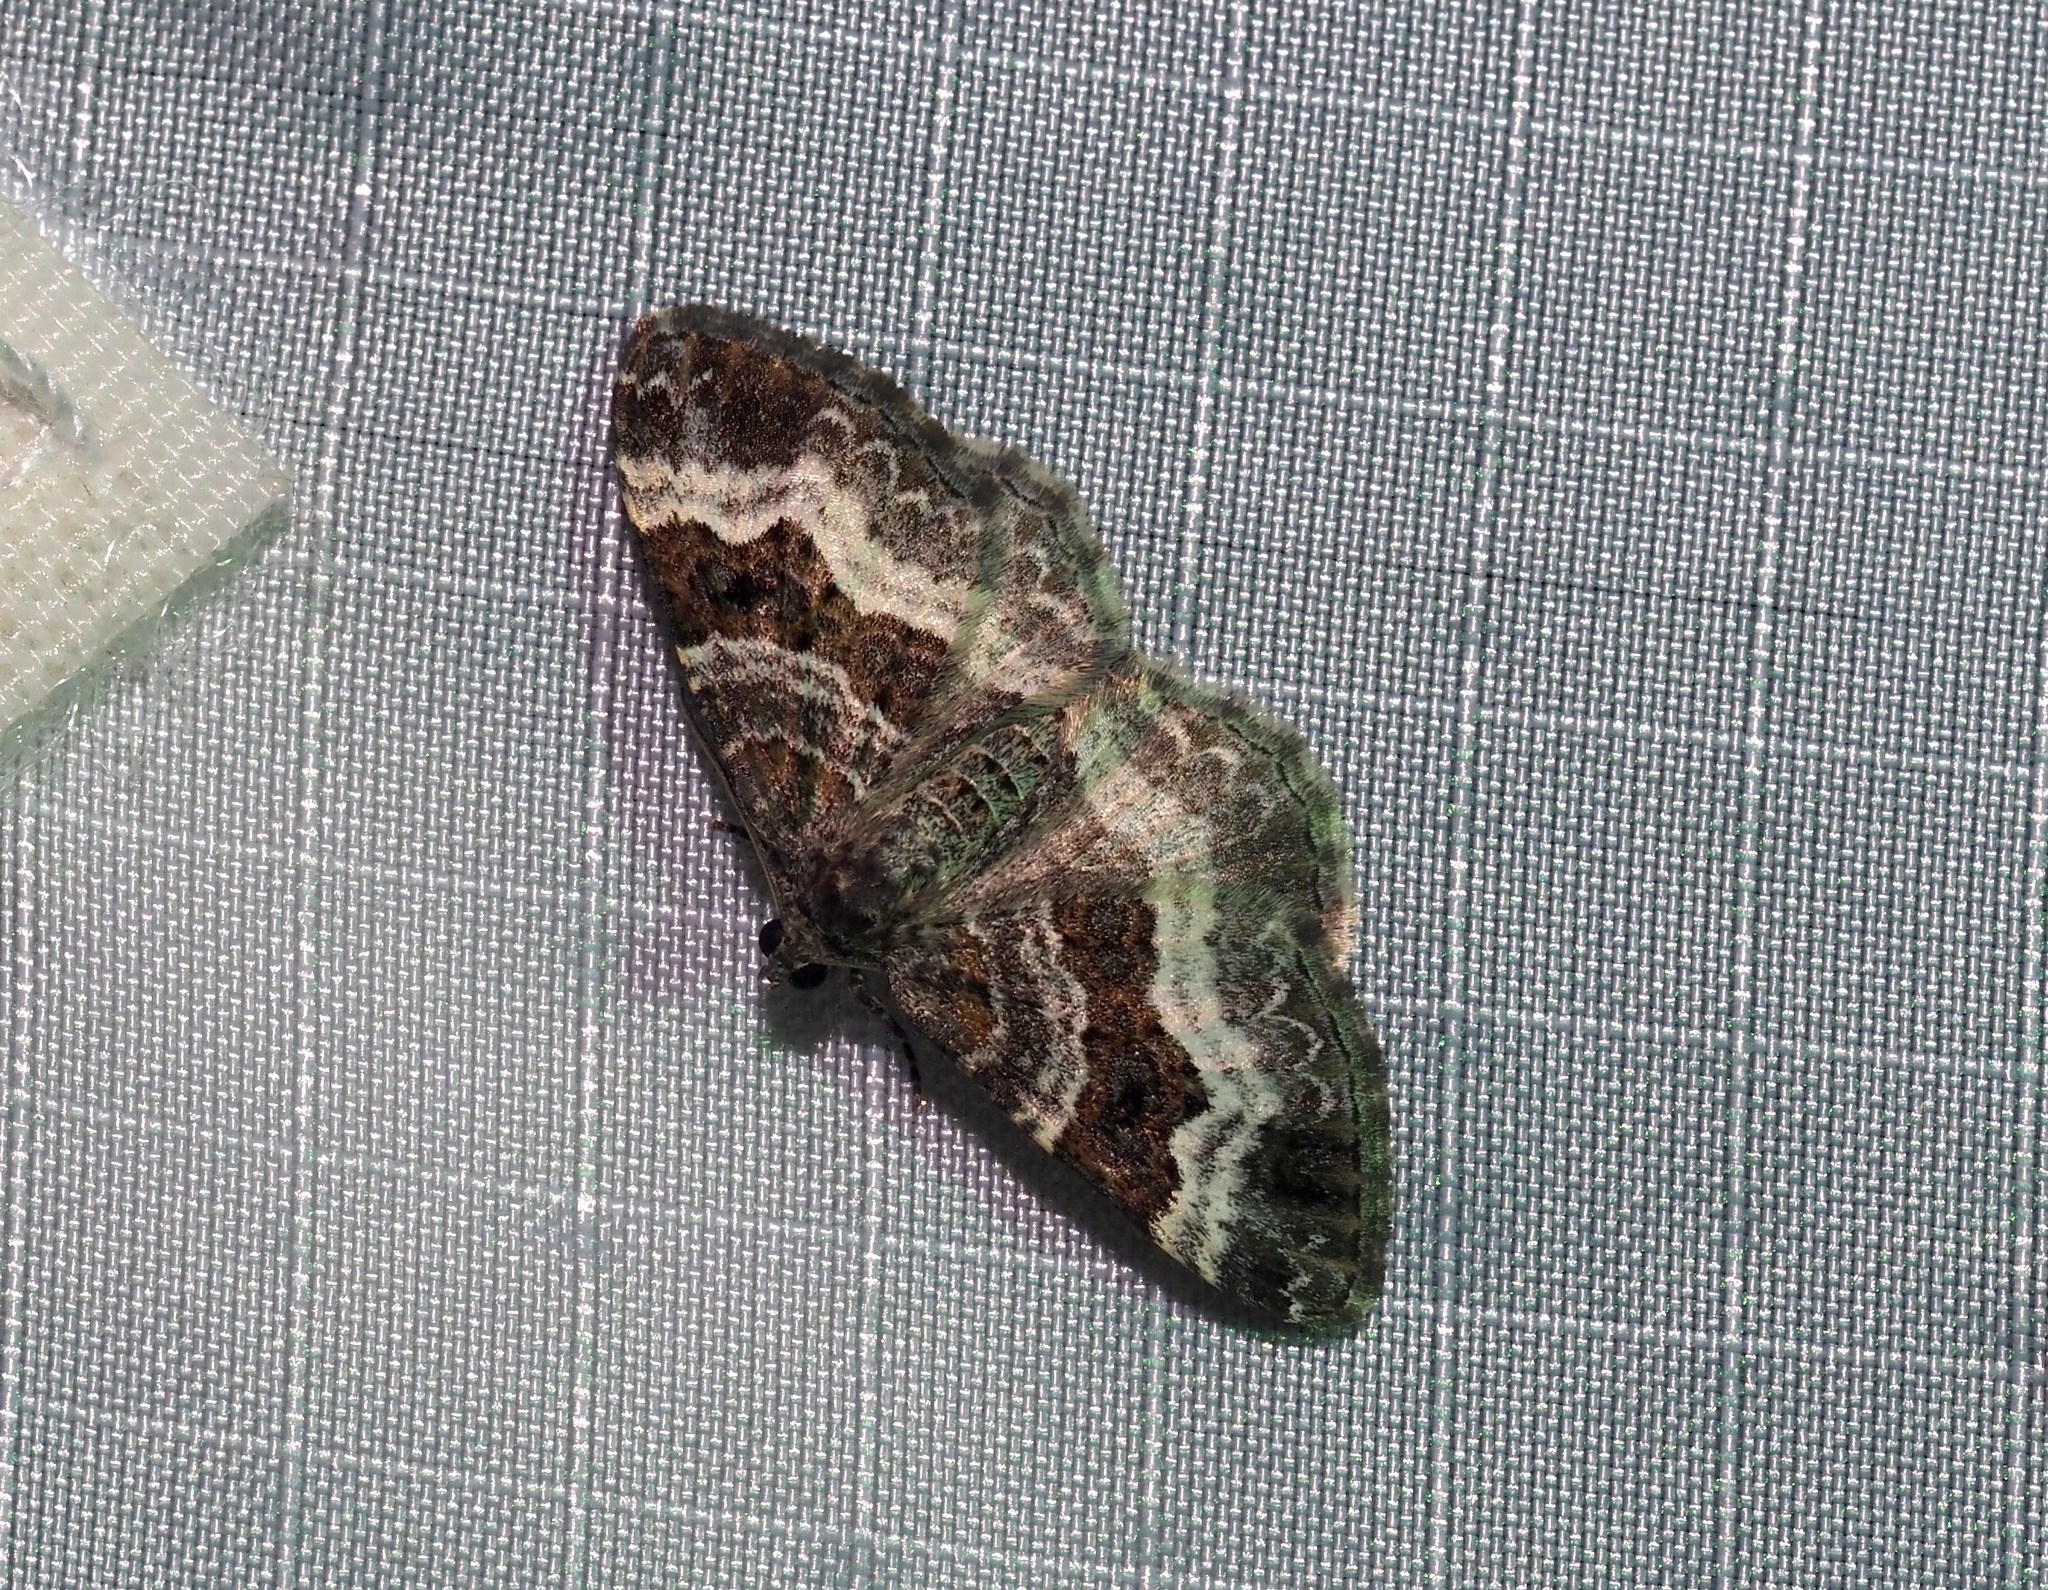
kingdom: Animalia
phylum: Arthropoda
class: Insecta
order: Lepidoptera
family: Geometridae
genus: Epirrhoe
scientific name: Epirrhoe alternata
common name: Common carpet
